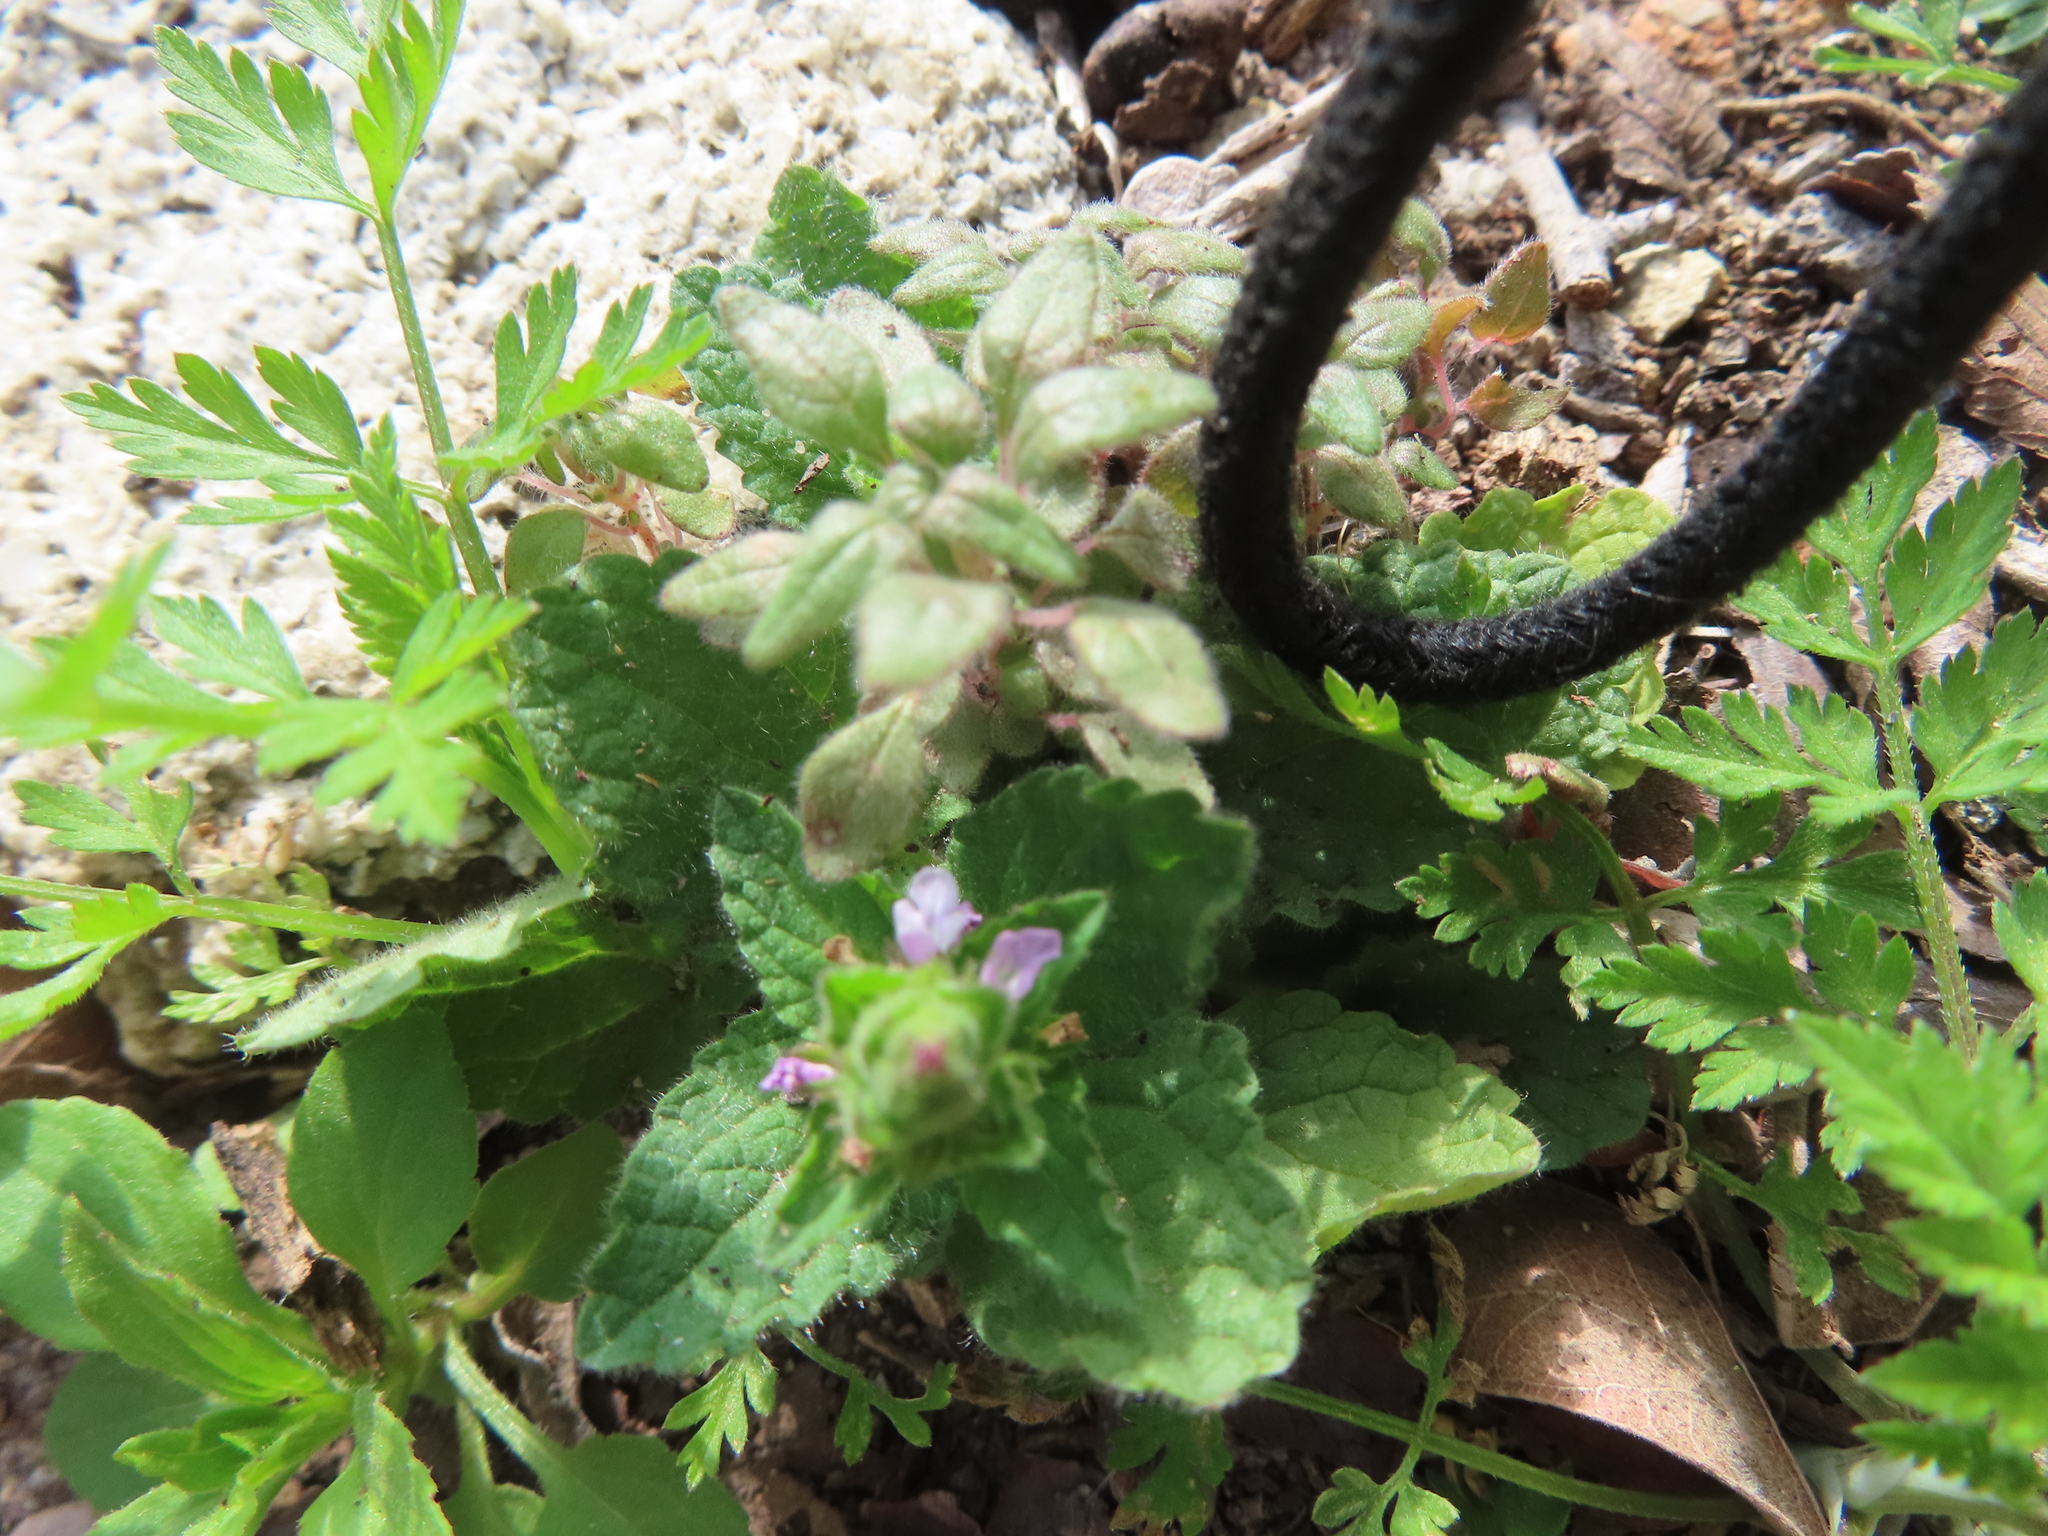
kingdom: Plantae
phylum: Tracheophyta
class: Magnoliopsida
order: Lamiales
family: Lamiaceae
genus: Stachys
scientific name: Stachys
